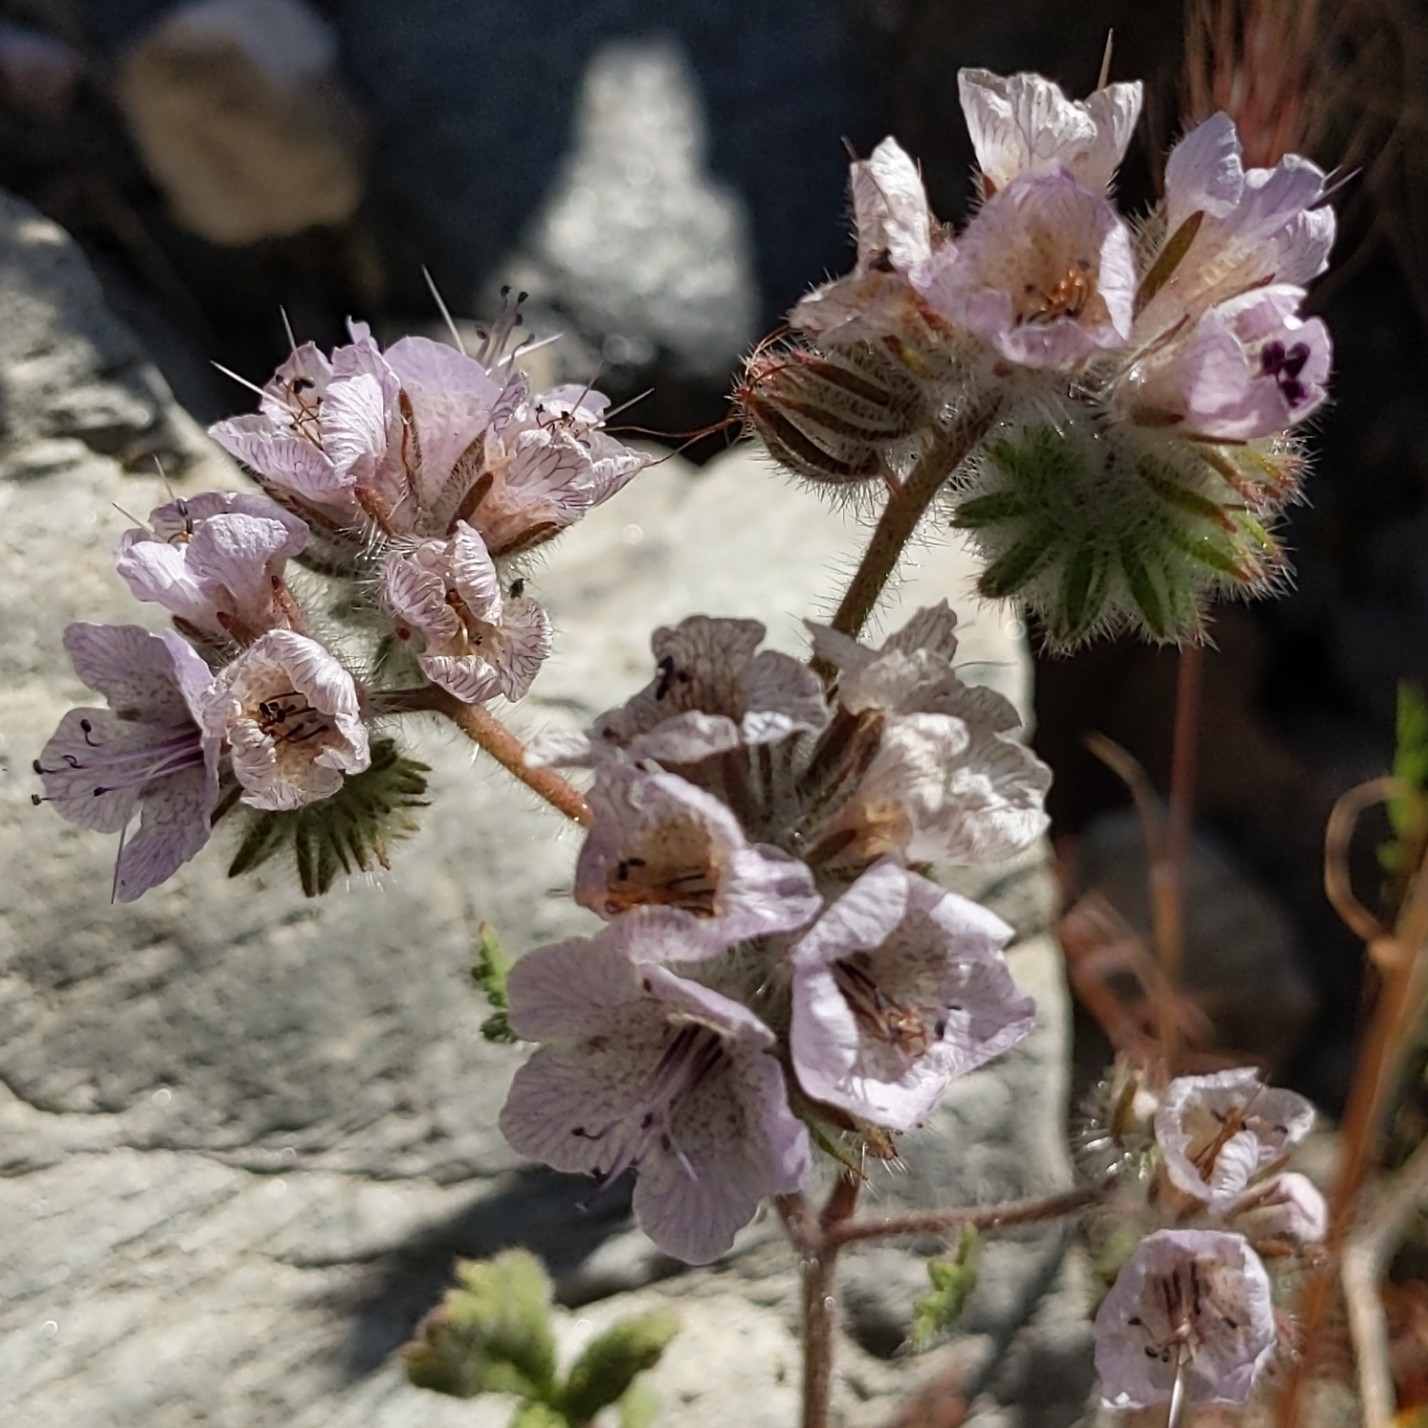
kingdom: Plantae
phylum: Tracheophyta
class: Magnoliopsida
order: Boraginales
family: Hydrophyllaceae
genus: Phacelia
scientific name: Phacelia cicutaria
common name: Caterpillar phacelia
